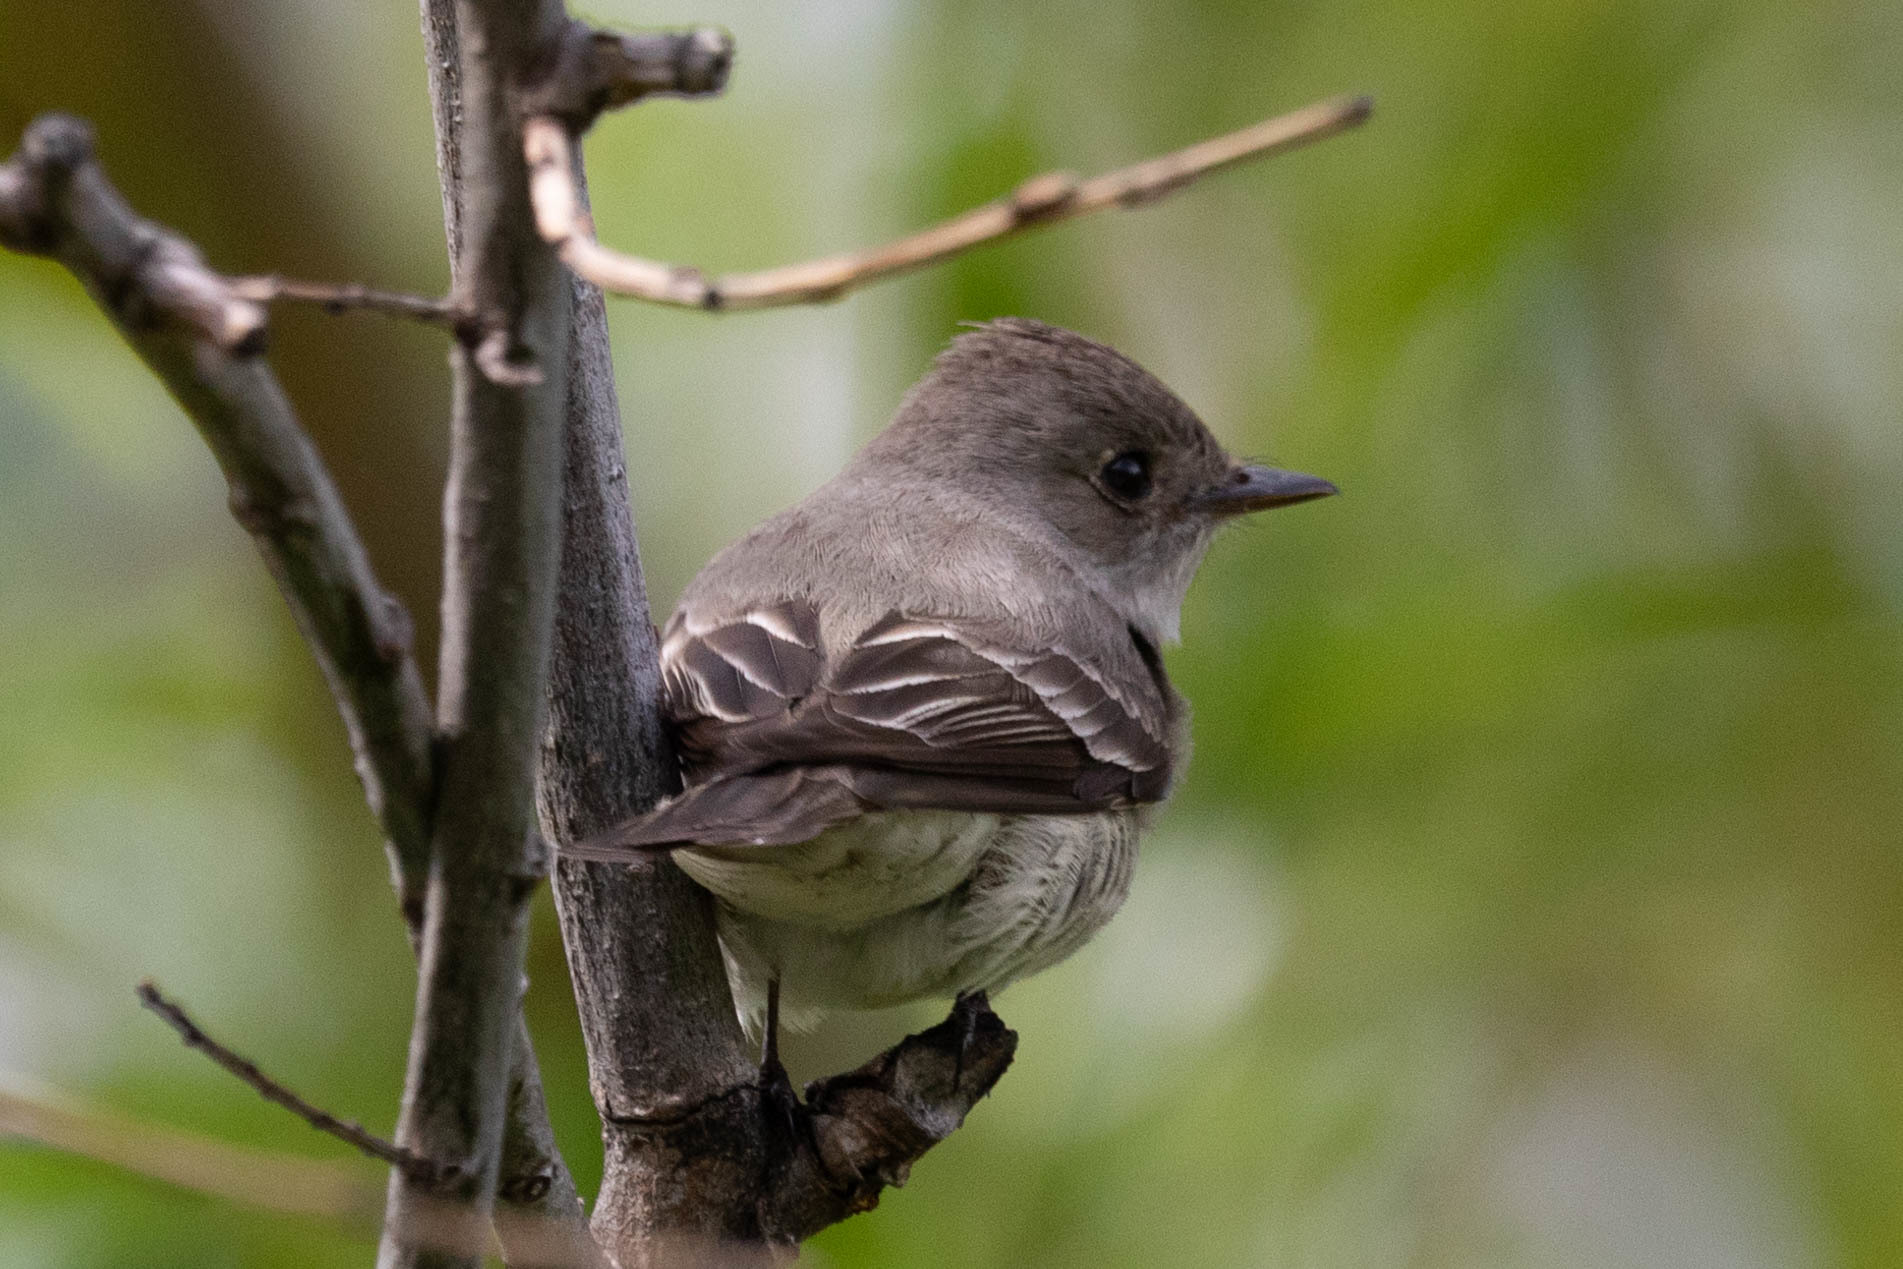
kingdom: Animalia
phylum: Chordata
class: Aves
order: Passeriformes
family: Tyrannidae
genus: Contopus
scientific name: Contopus sordidulus
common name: Western wood-pewee
